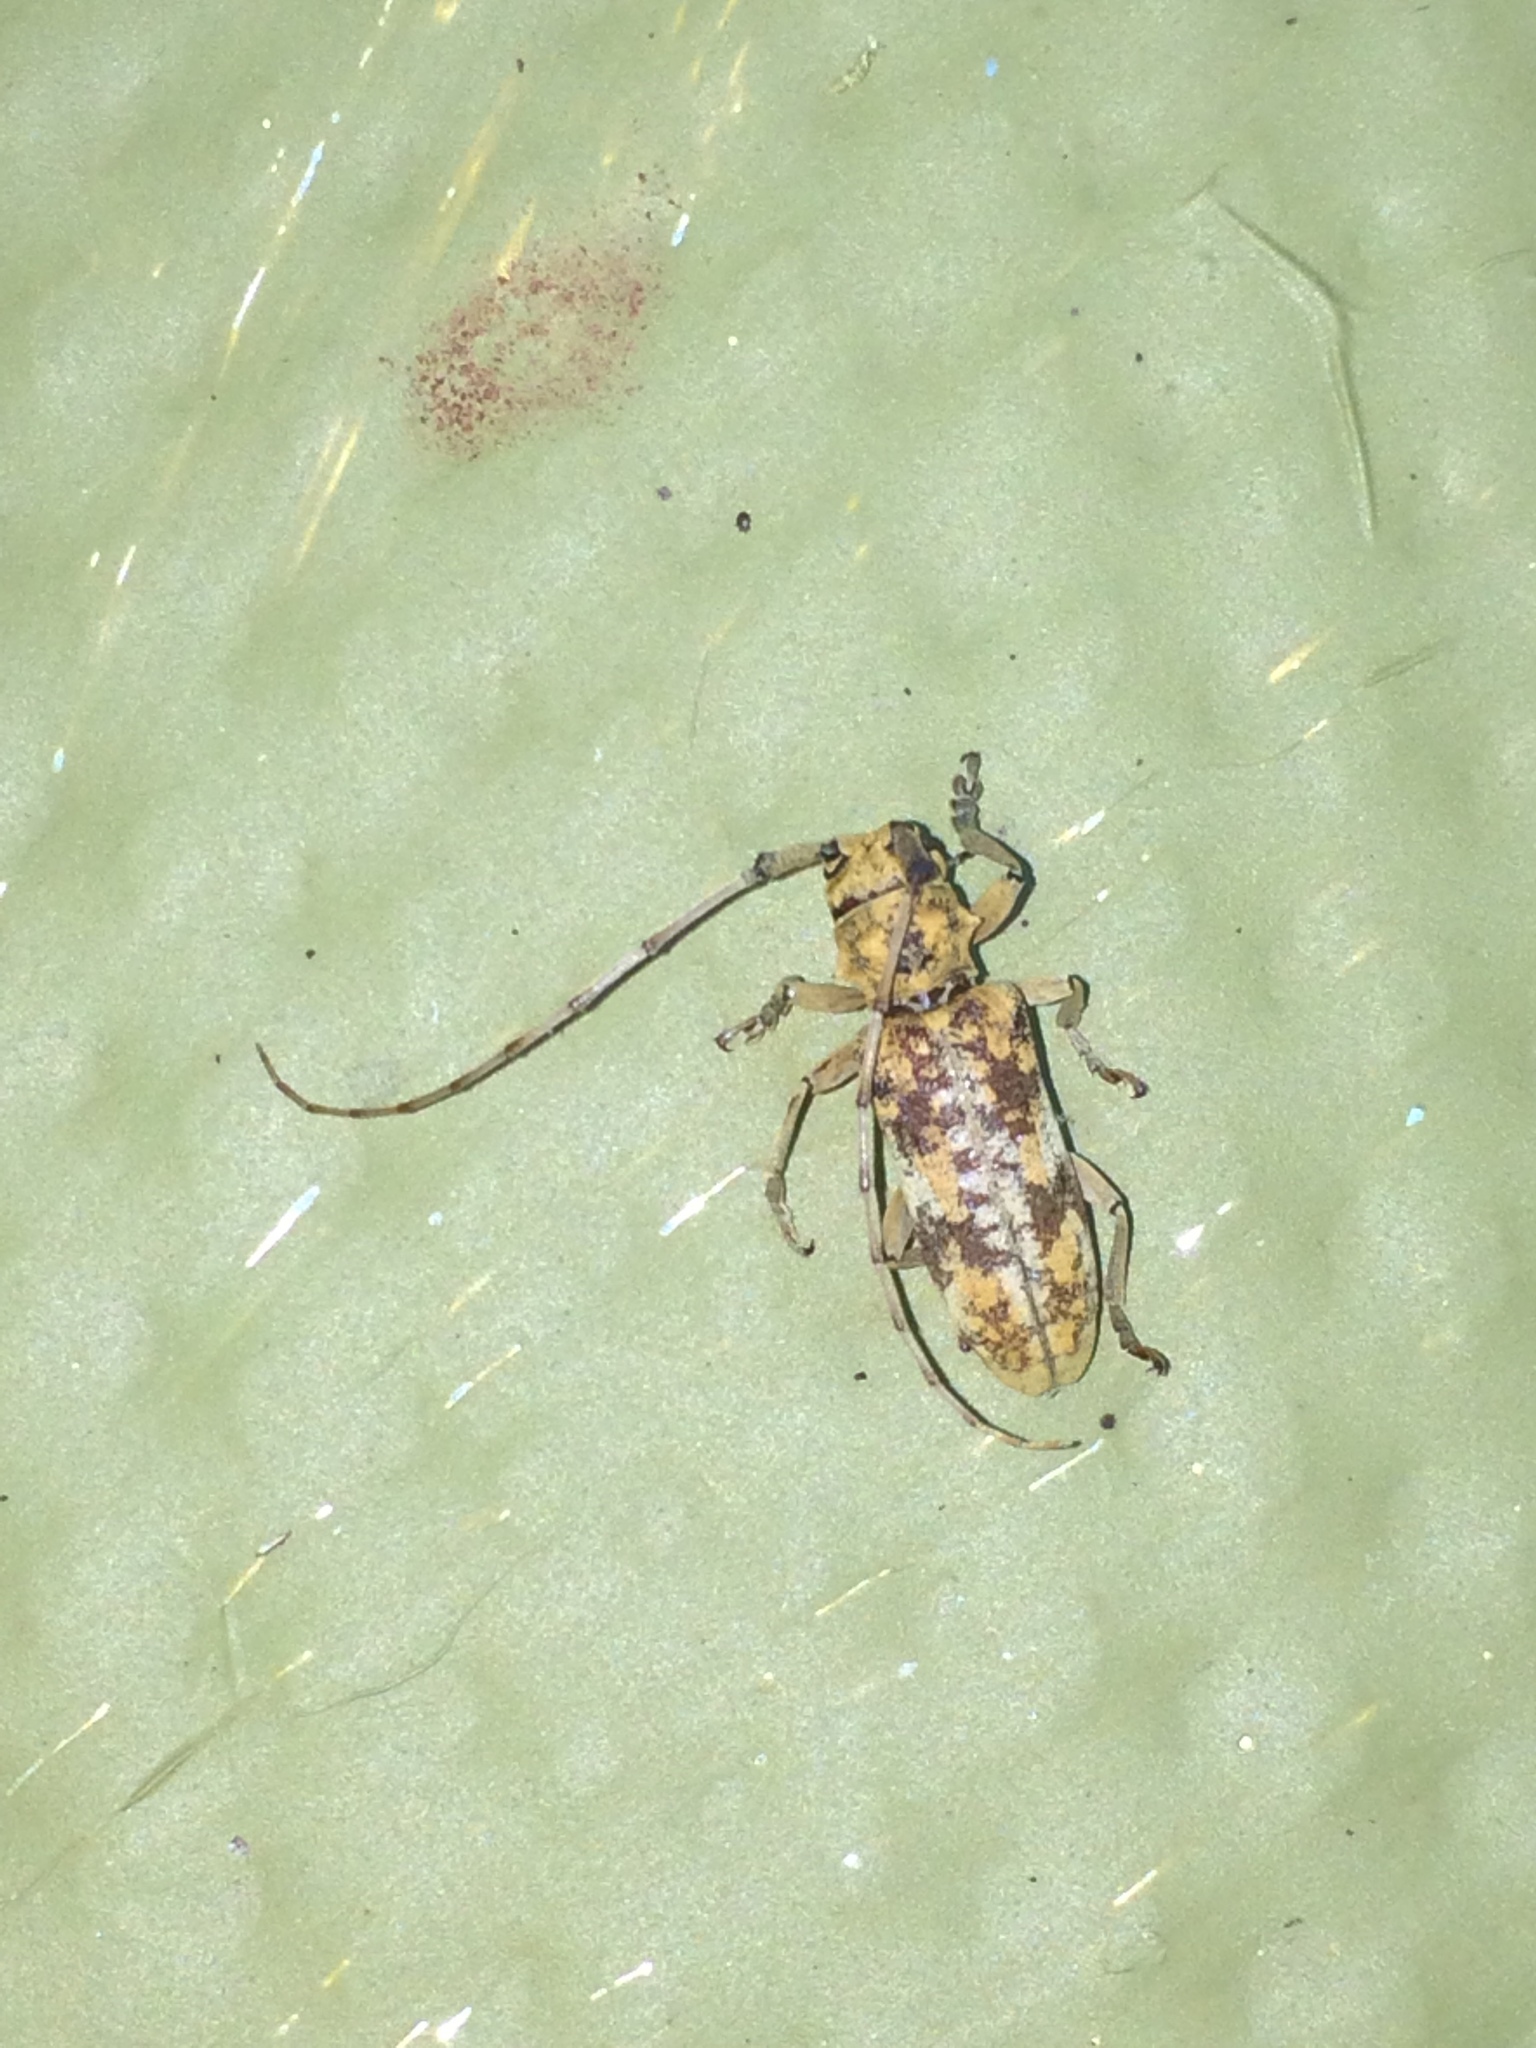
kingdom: Animalia
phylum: Arthropoda
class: Insecta
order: Coleoptera
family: Cerambycidae
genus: Goes
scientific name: Goes variegatus
